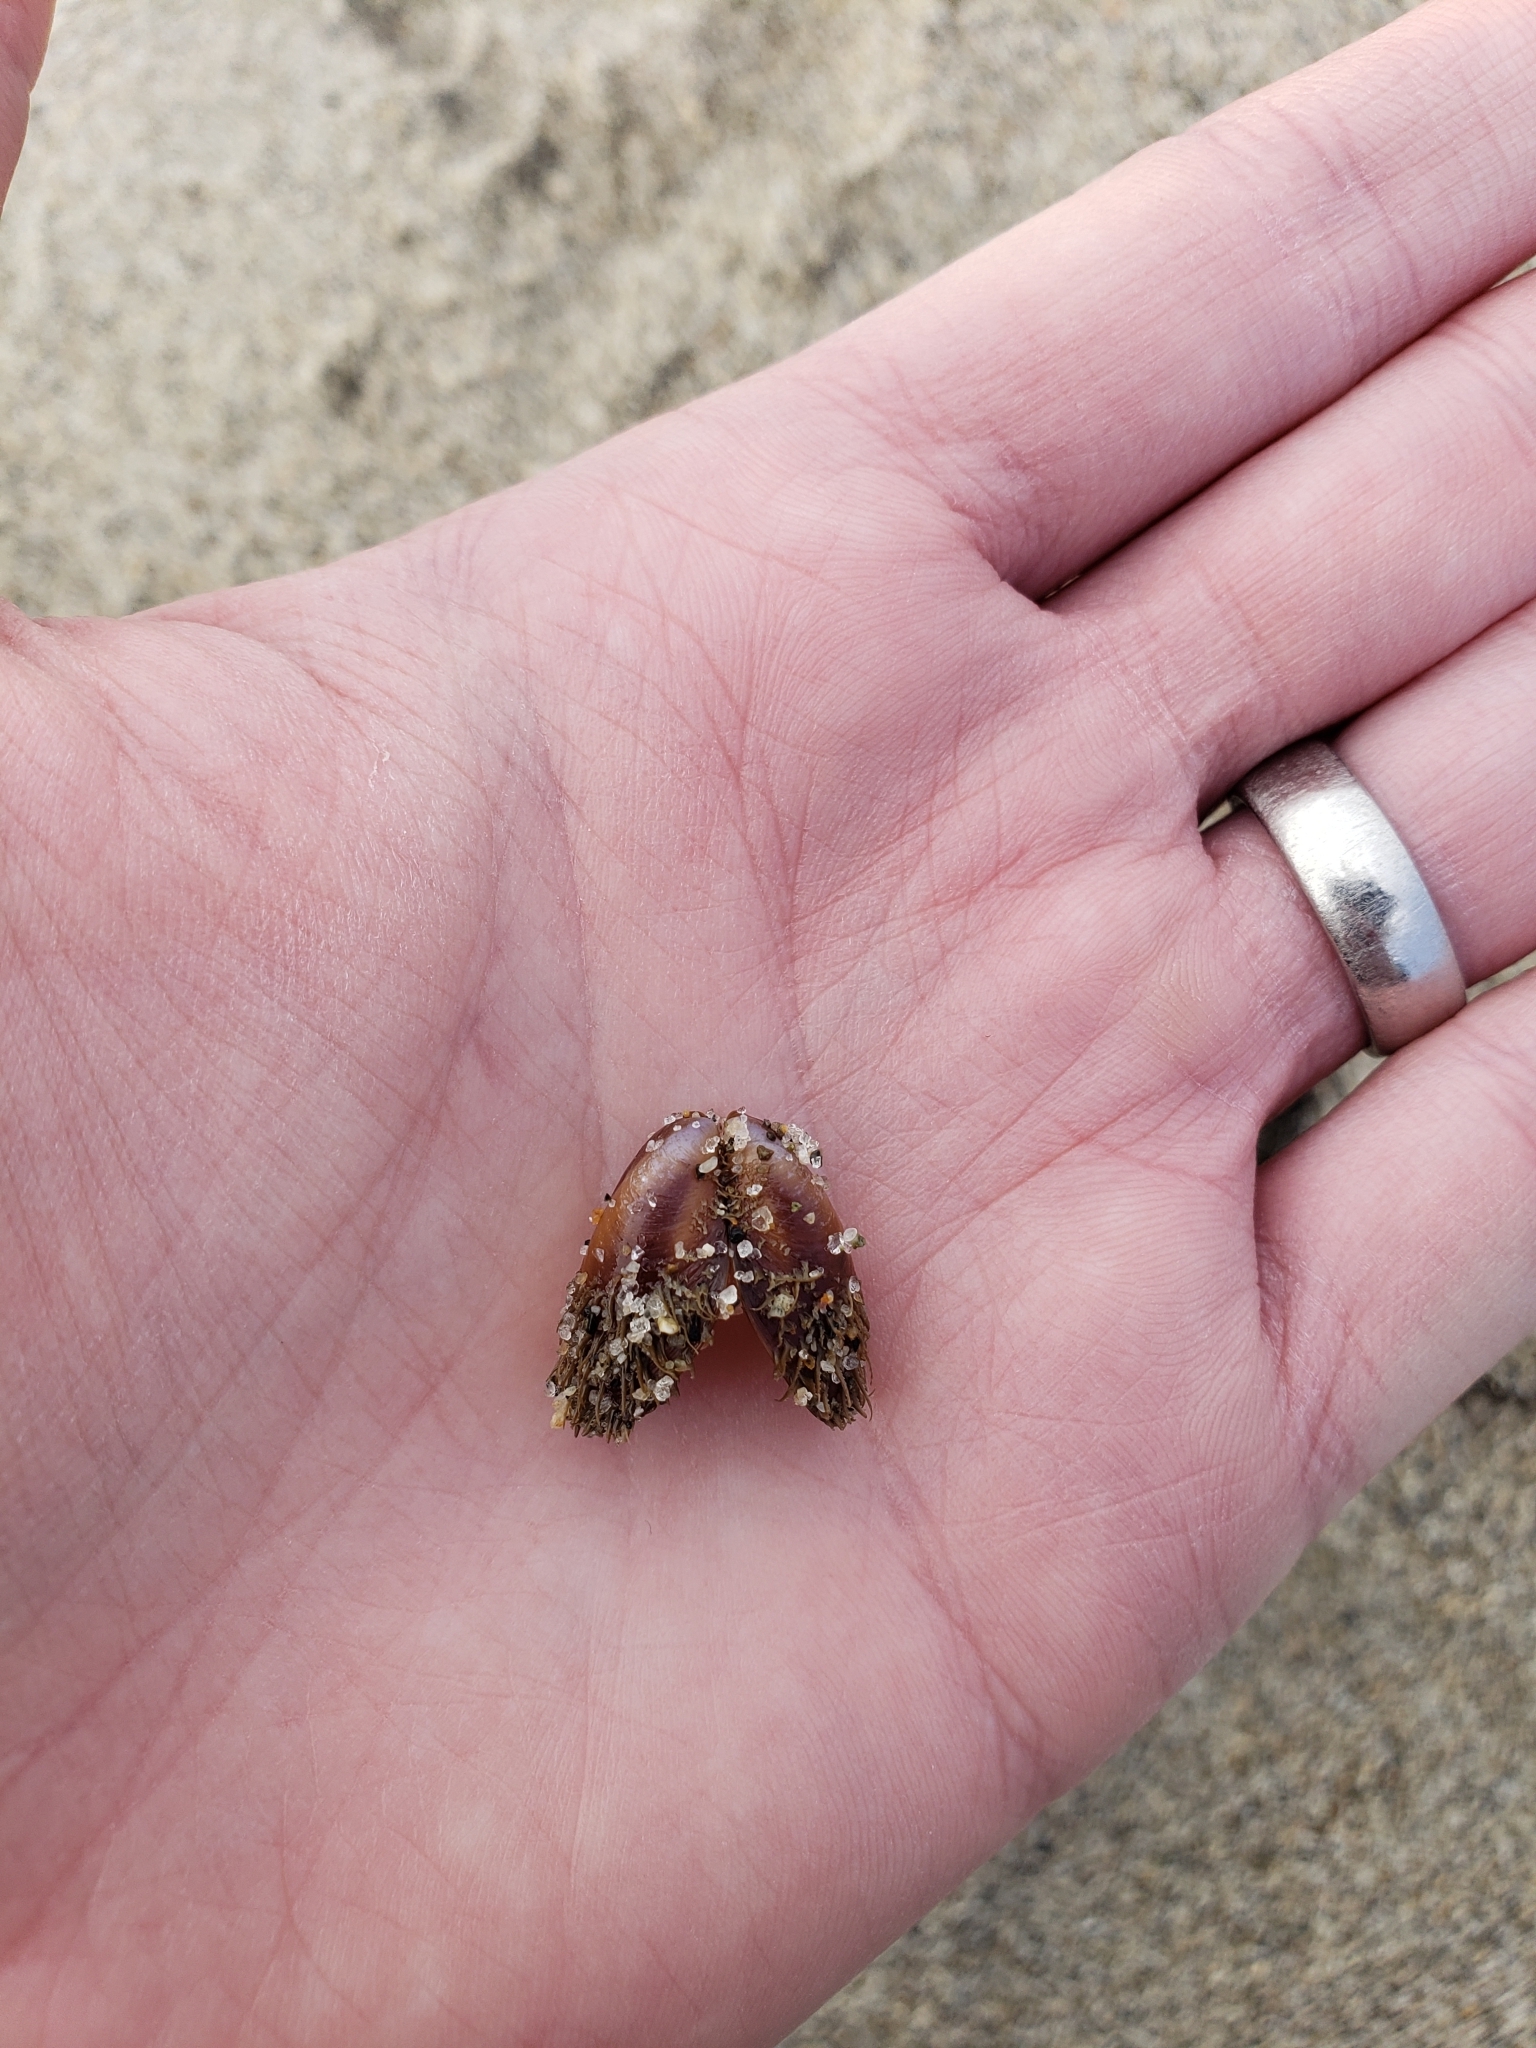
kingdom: Animalia
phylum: Mollusca
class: Bivalvia
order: Mytilida
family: Mytilidae
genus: Modiolus
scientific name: Modiolus capax
